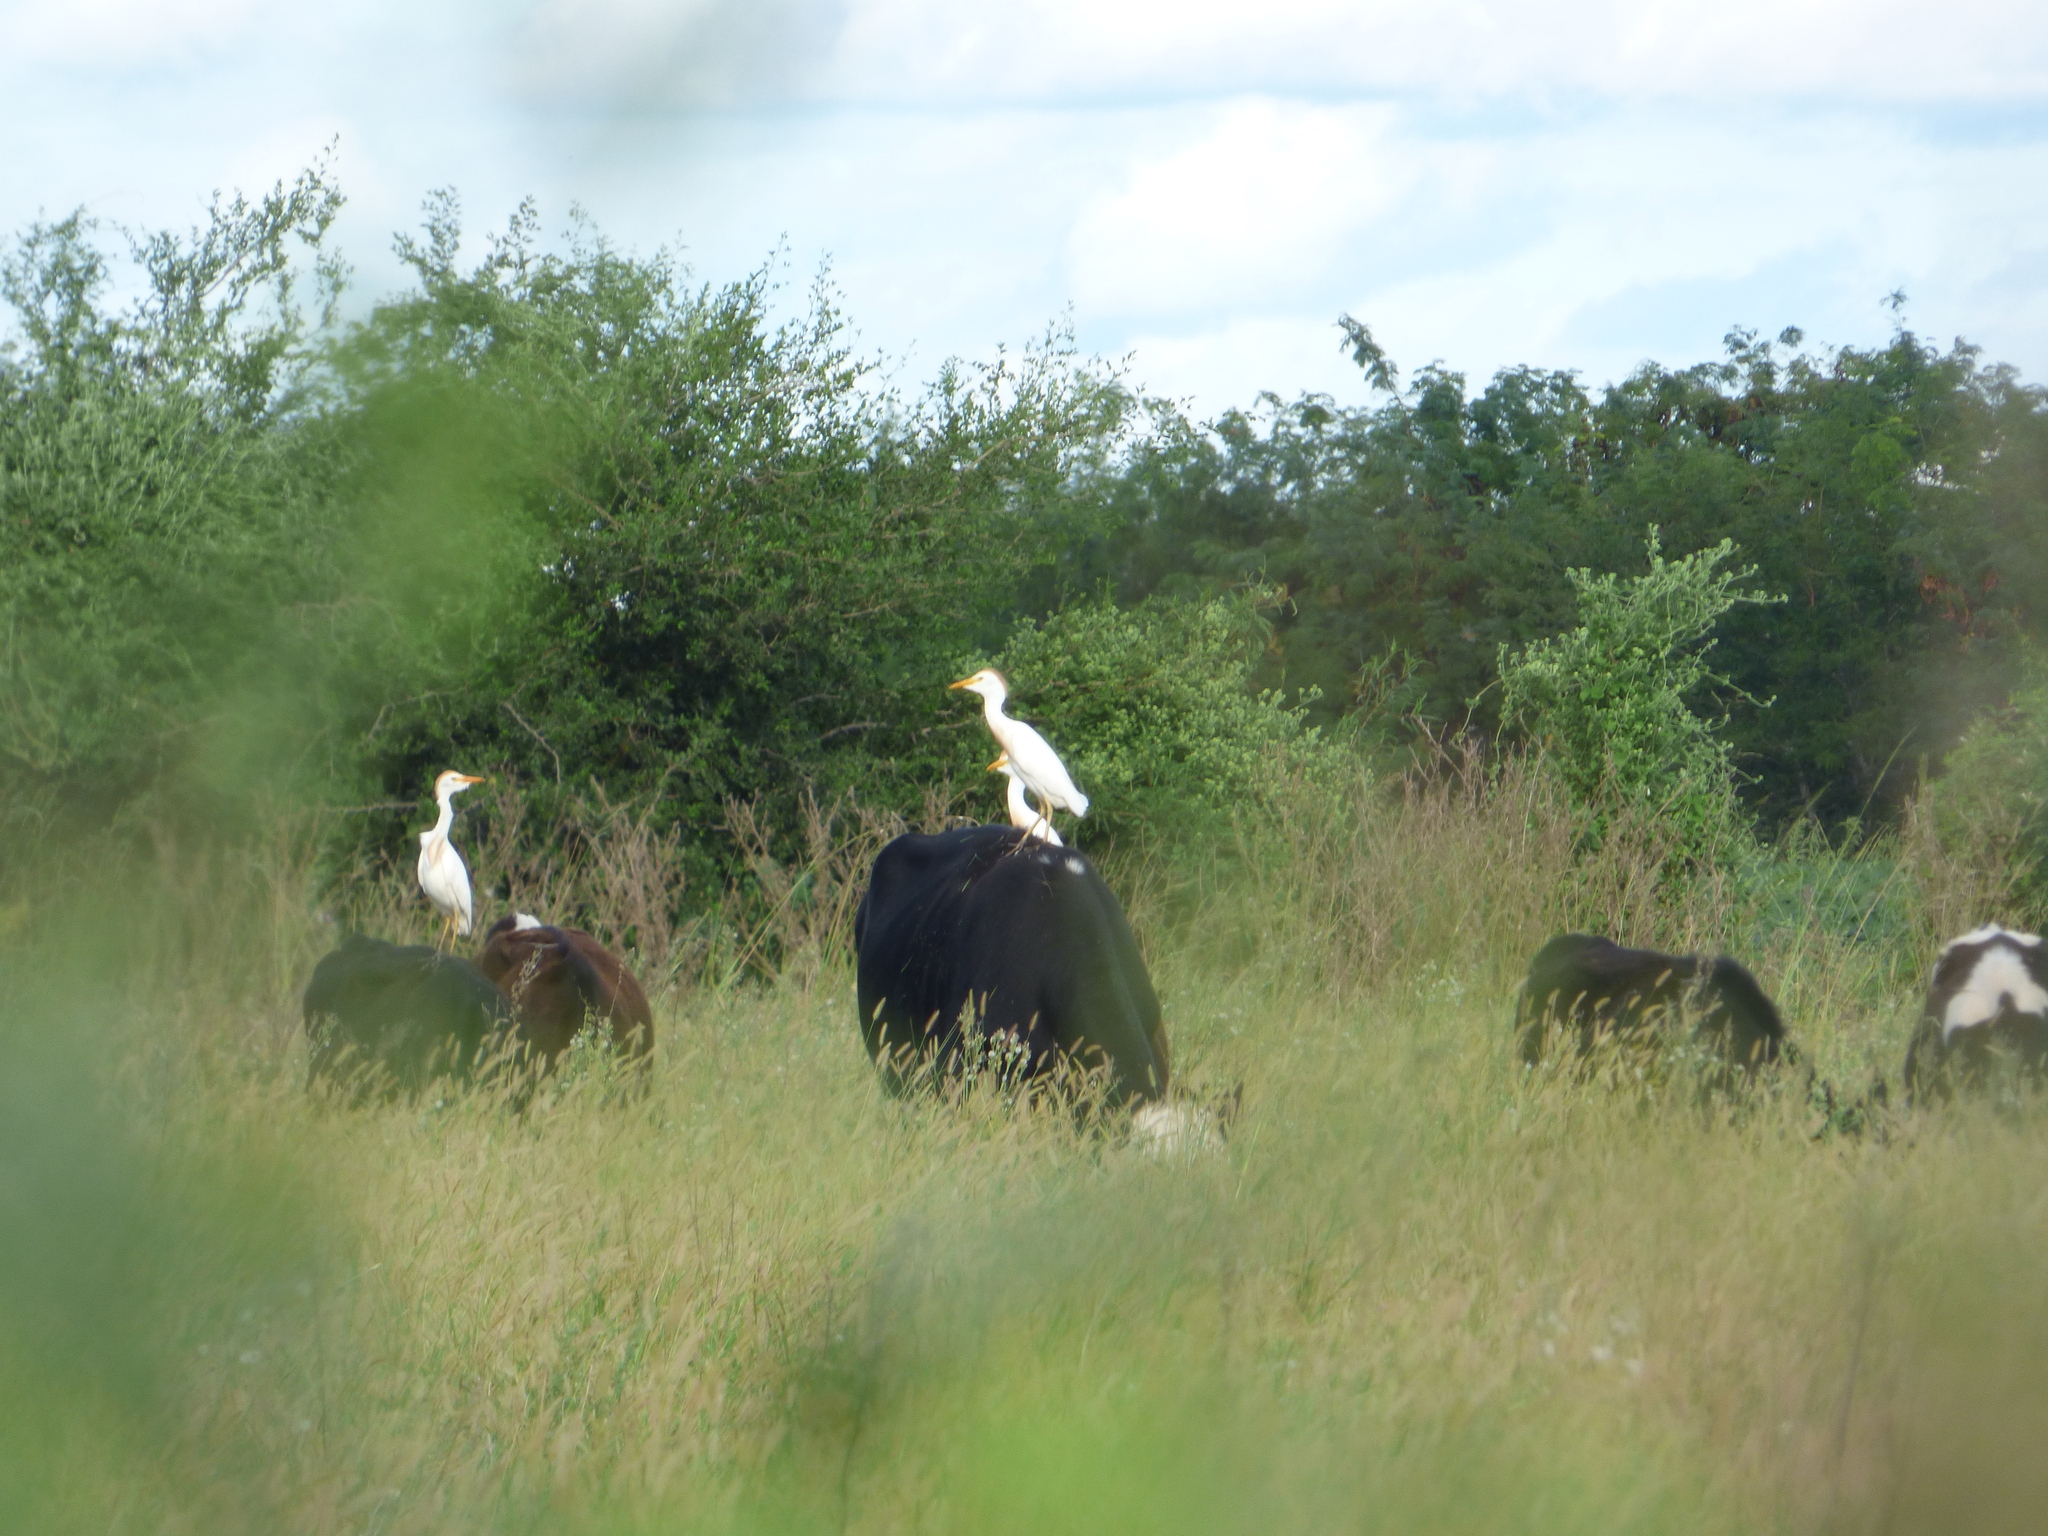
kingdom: Animalia
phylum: Chordata
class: Aves
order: Pelecaniformes
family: Ardeidae
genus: Bubulcus
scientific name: Bubulcus ibis
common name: Cattle egret
